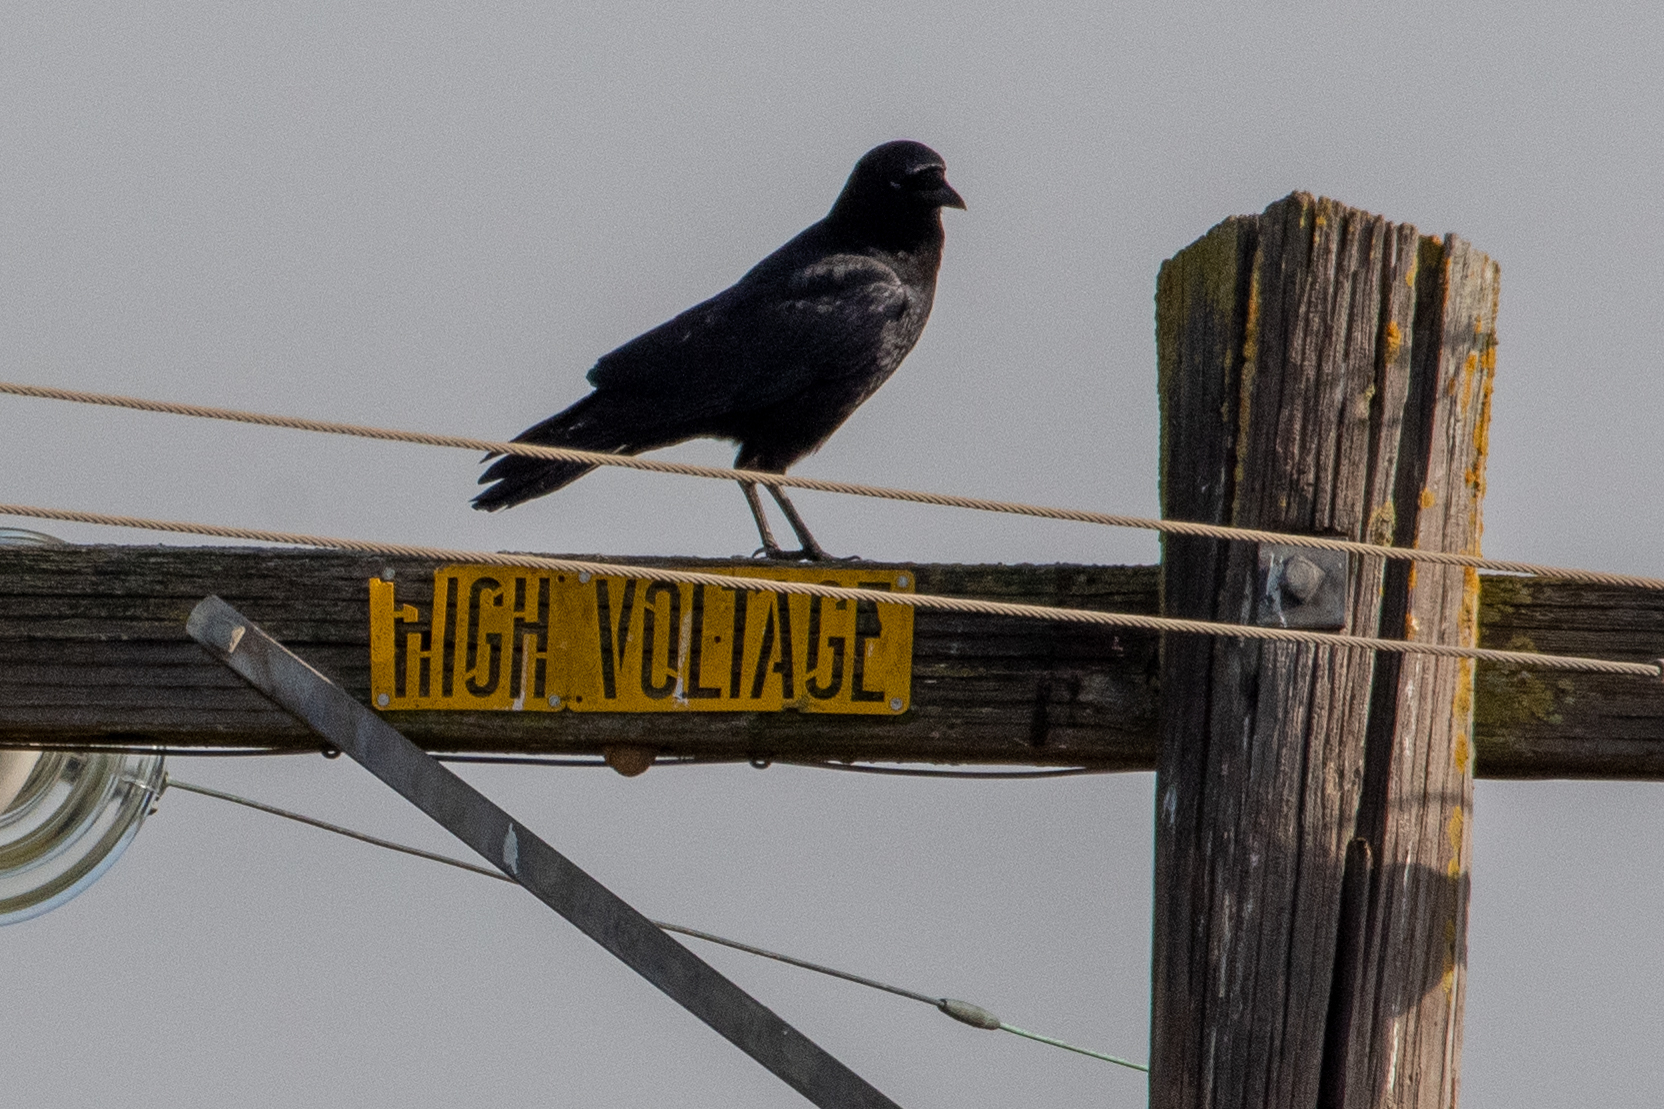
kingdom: Animalia
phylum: Chordata
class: Aves
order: Passeriformes
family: Corvidae
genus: Corvus
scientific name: Corvus brachyrhynchos
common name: American crow
